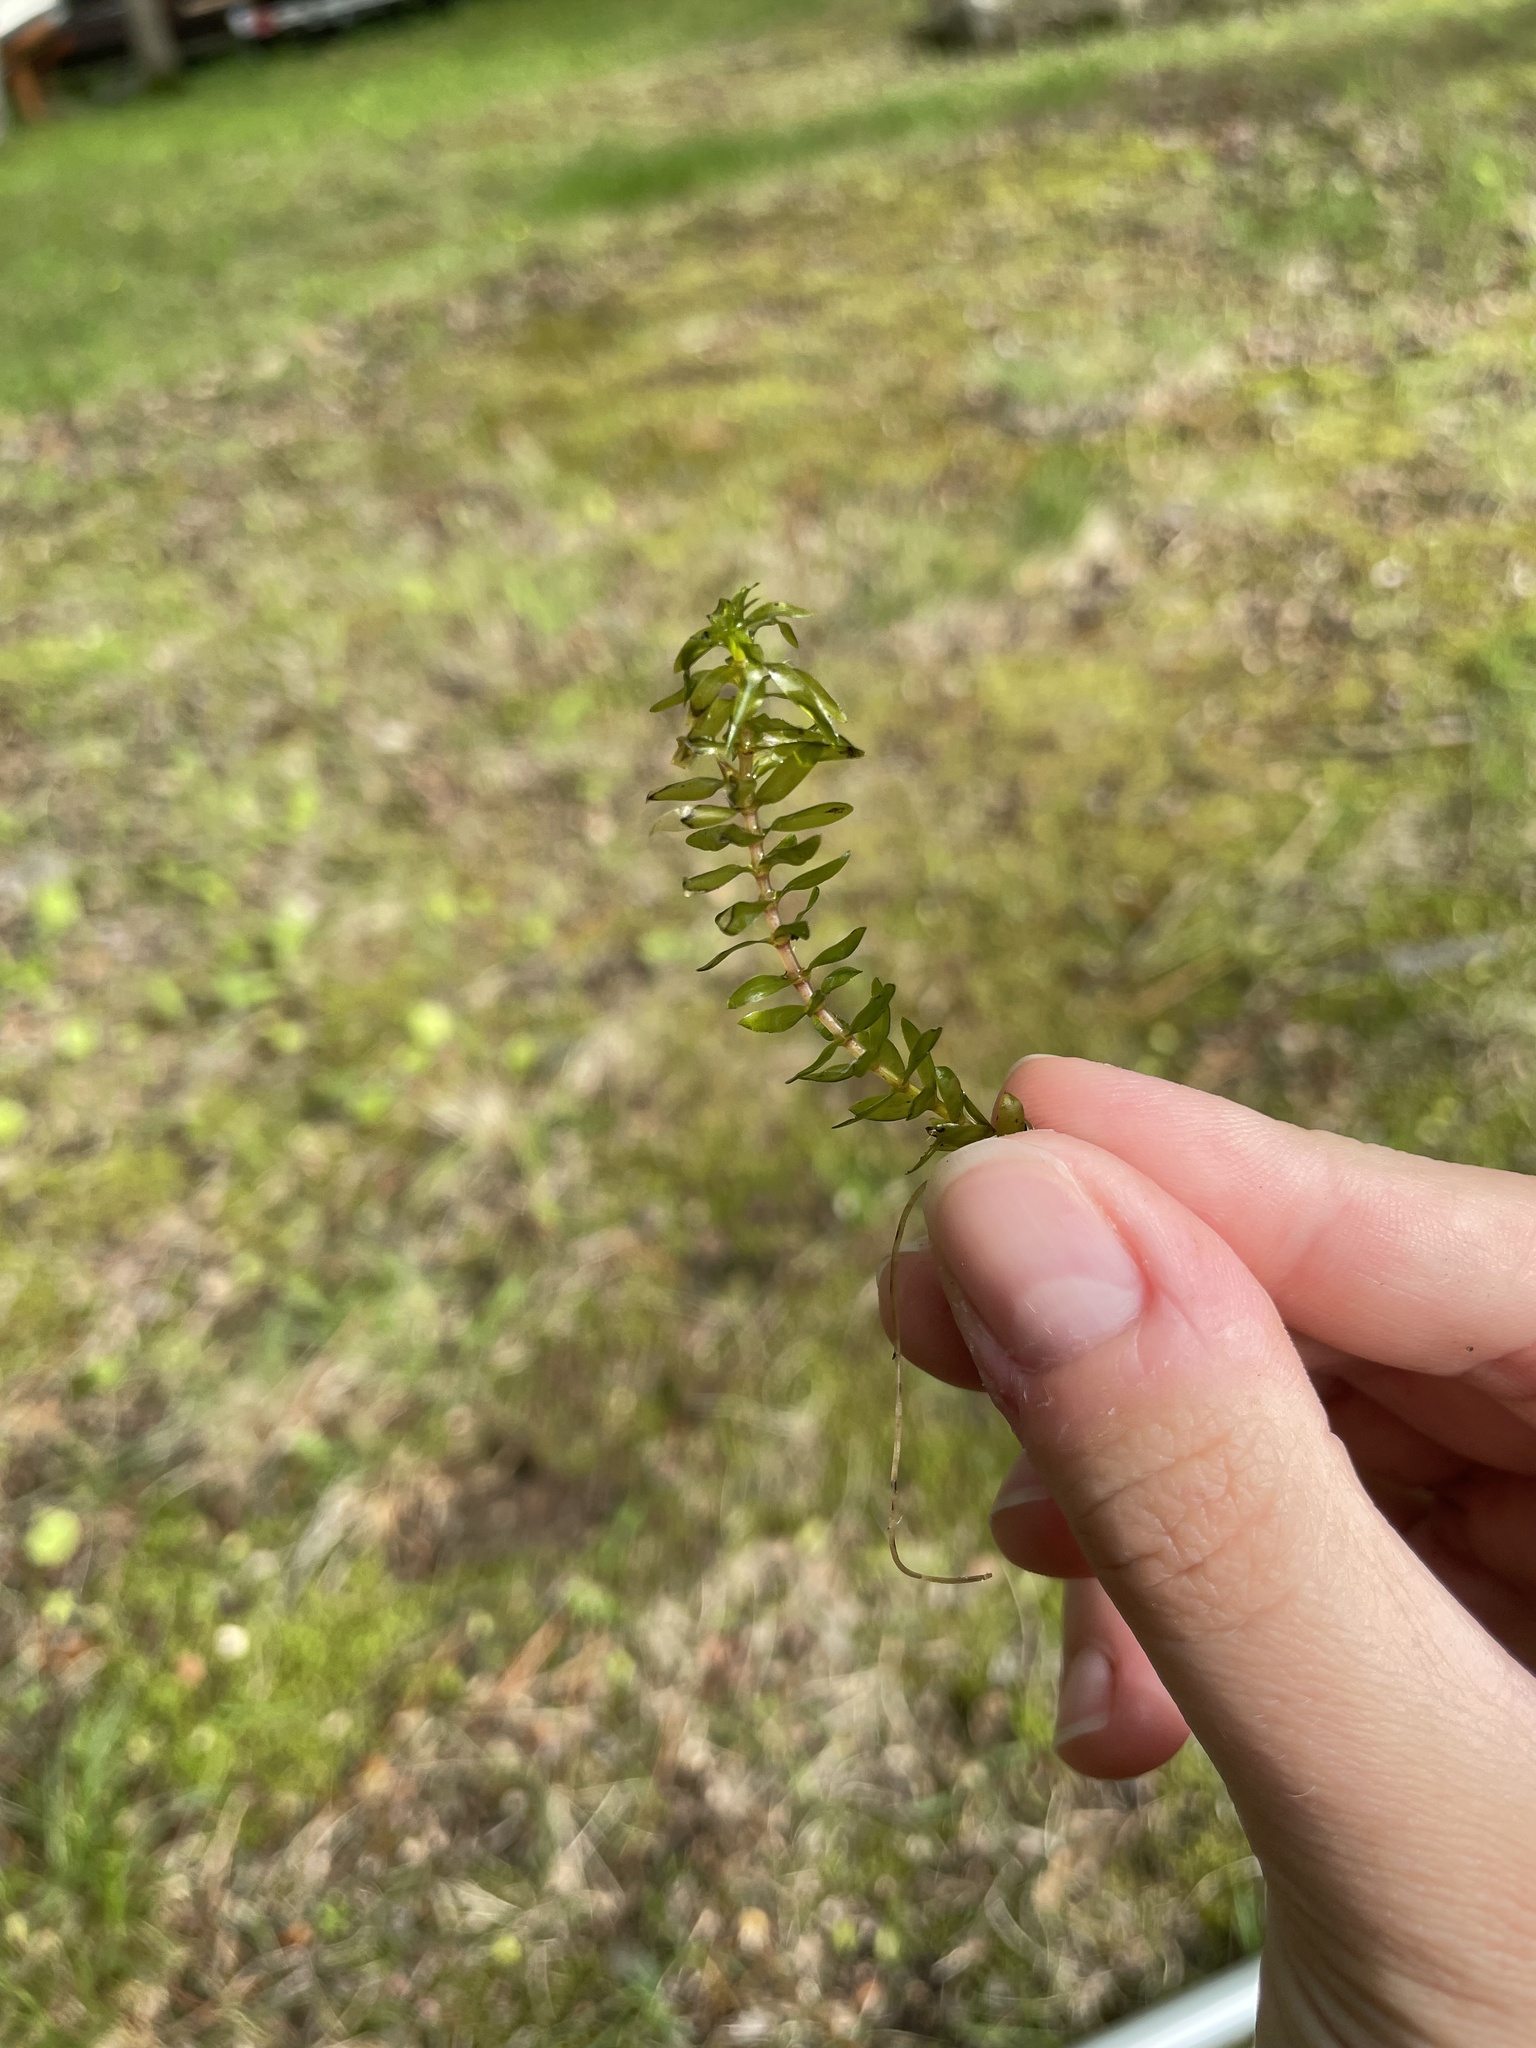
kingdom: Plantae
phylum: Tracheophyta
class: Liliopsida
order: Alismatales
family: Hydrocharitaceae
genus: Elodea
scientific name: Elodea canadensis
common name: Canadian waterweed
